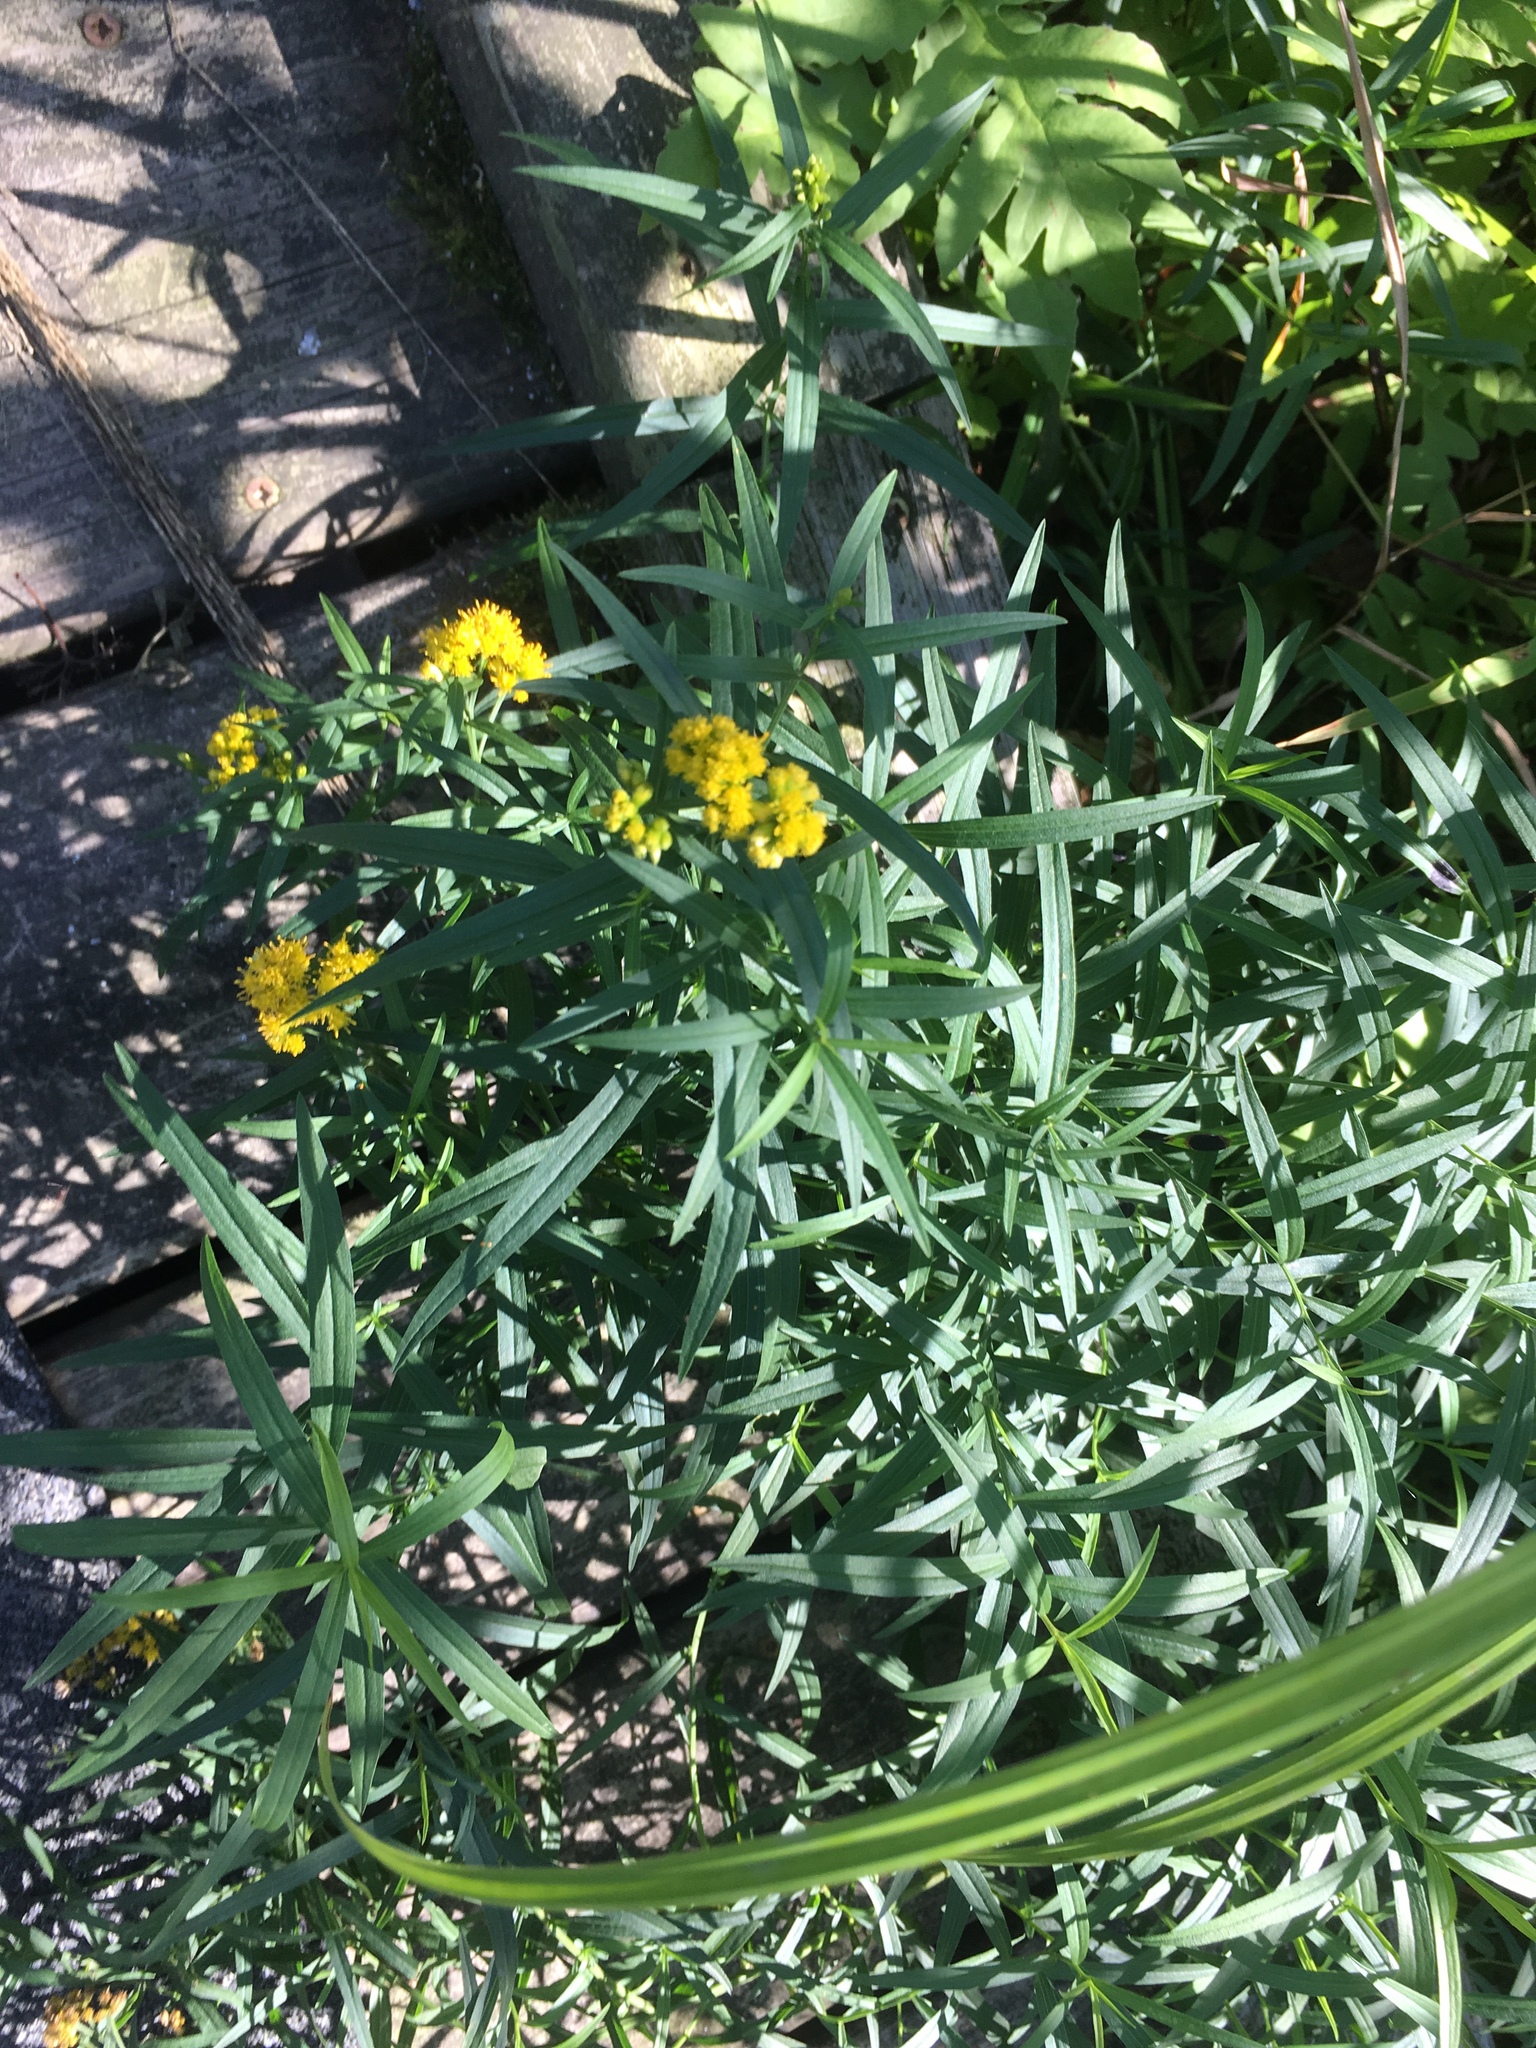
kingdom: Plantae
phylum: Tracheophyta
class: Magnoliopsida
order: Asterales
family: Asteraceae
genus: Euthamia
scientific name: Euthamia graminifolia
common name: Common goldentop
